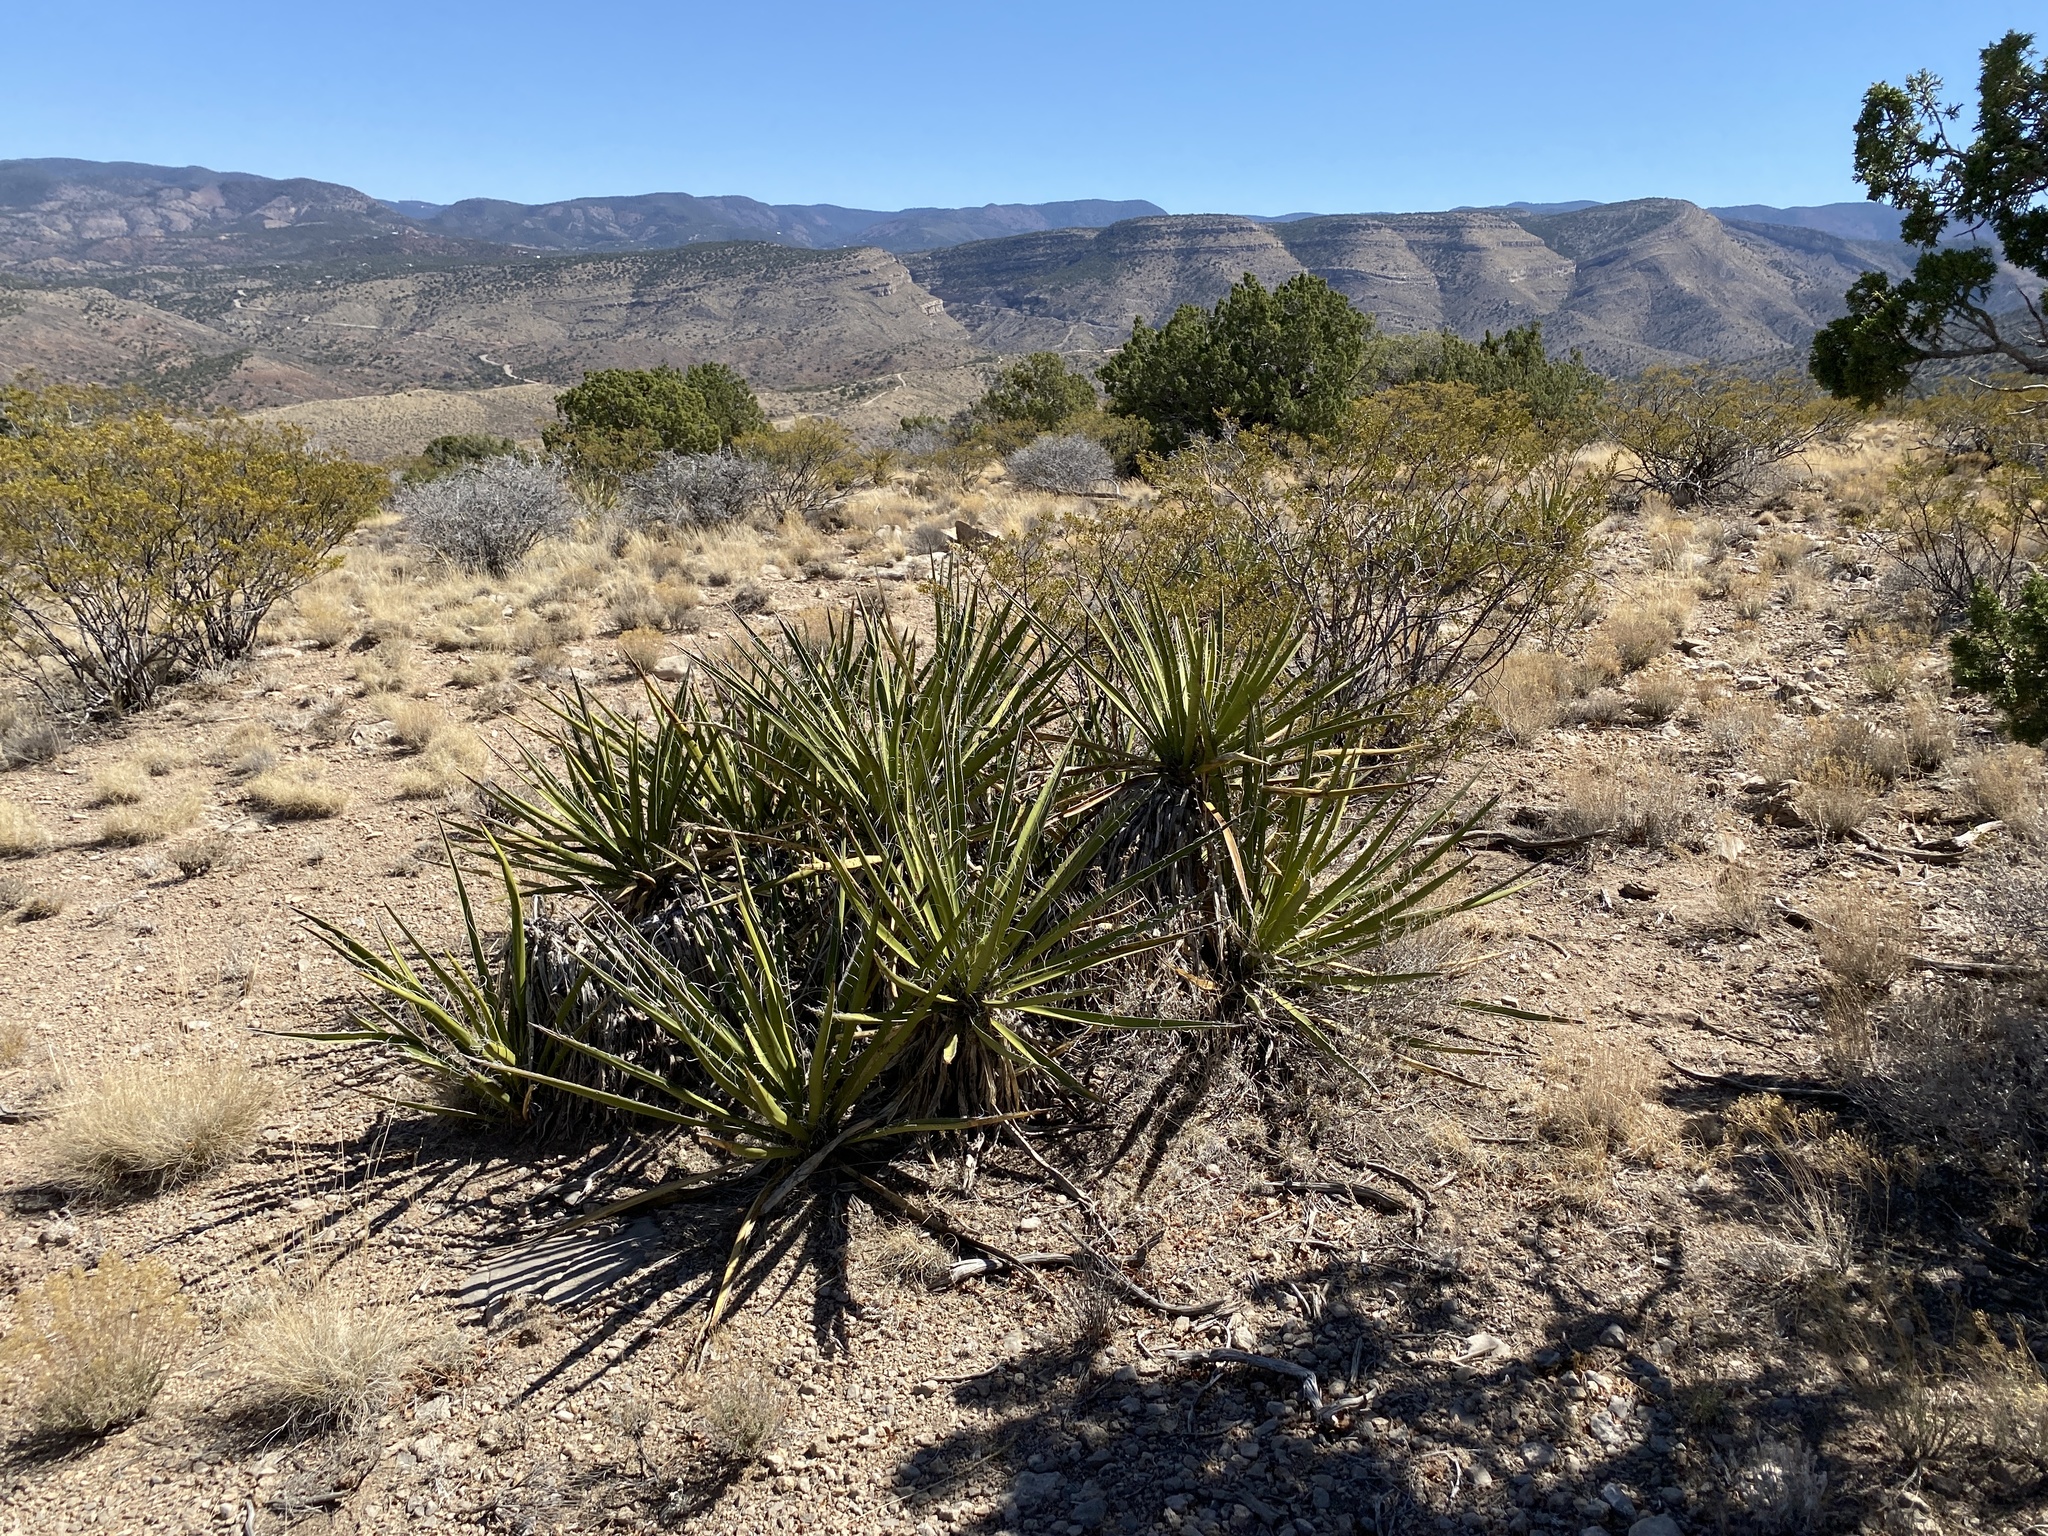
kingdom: Plantae
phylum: Tracheophyta
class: Liliopsida
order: Asparagales
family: Asparagaceae
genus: Yucca
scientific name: Yucca baccata
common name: Banana yucca
